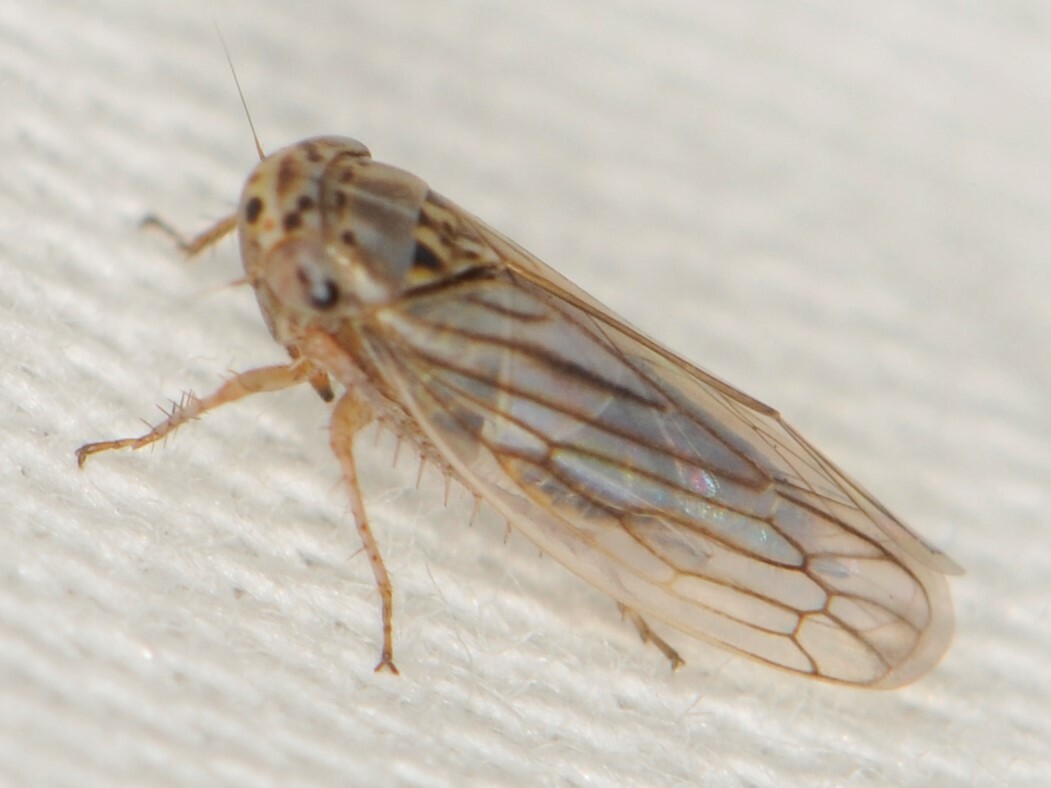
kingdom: Animalia
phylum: Arthropoda
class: Insecta
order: Hemiptera
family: Cicadellidae
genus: Exitianus
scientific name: Exitianus
